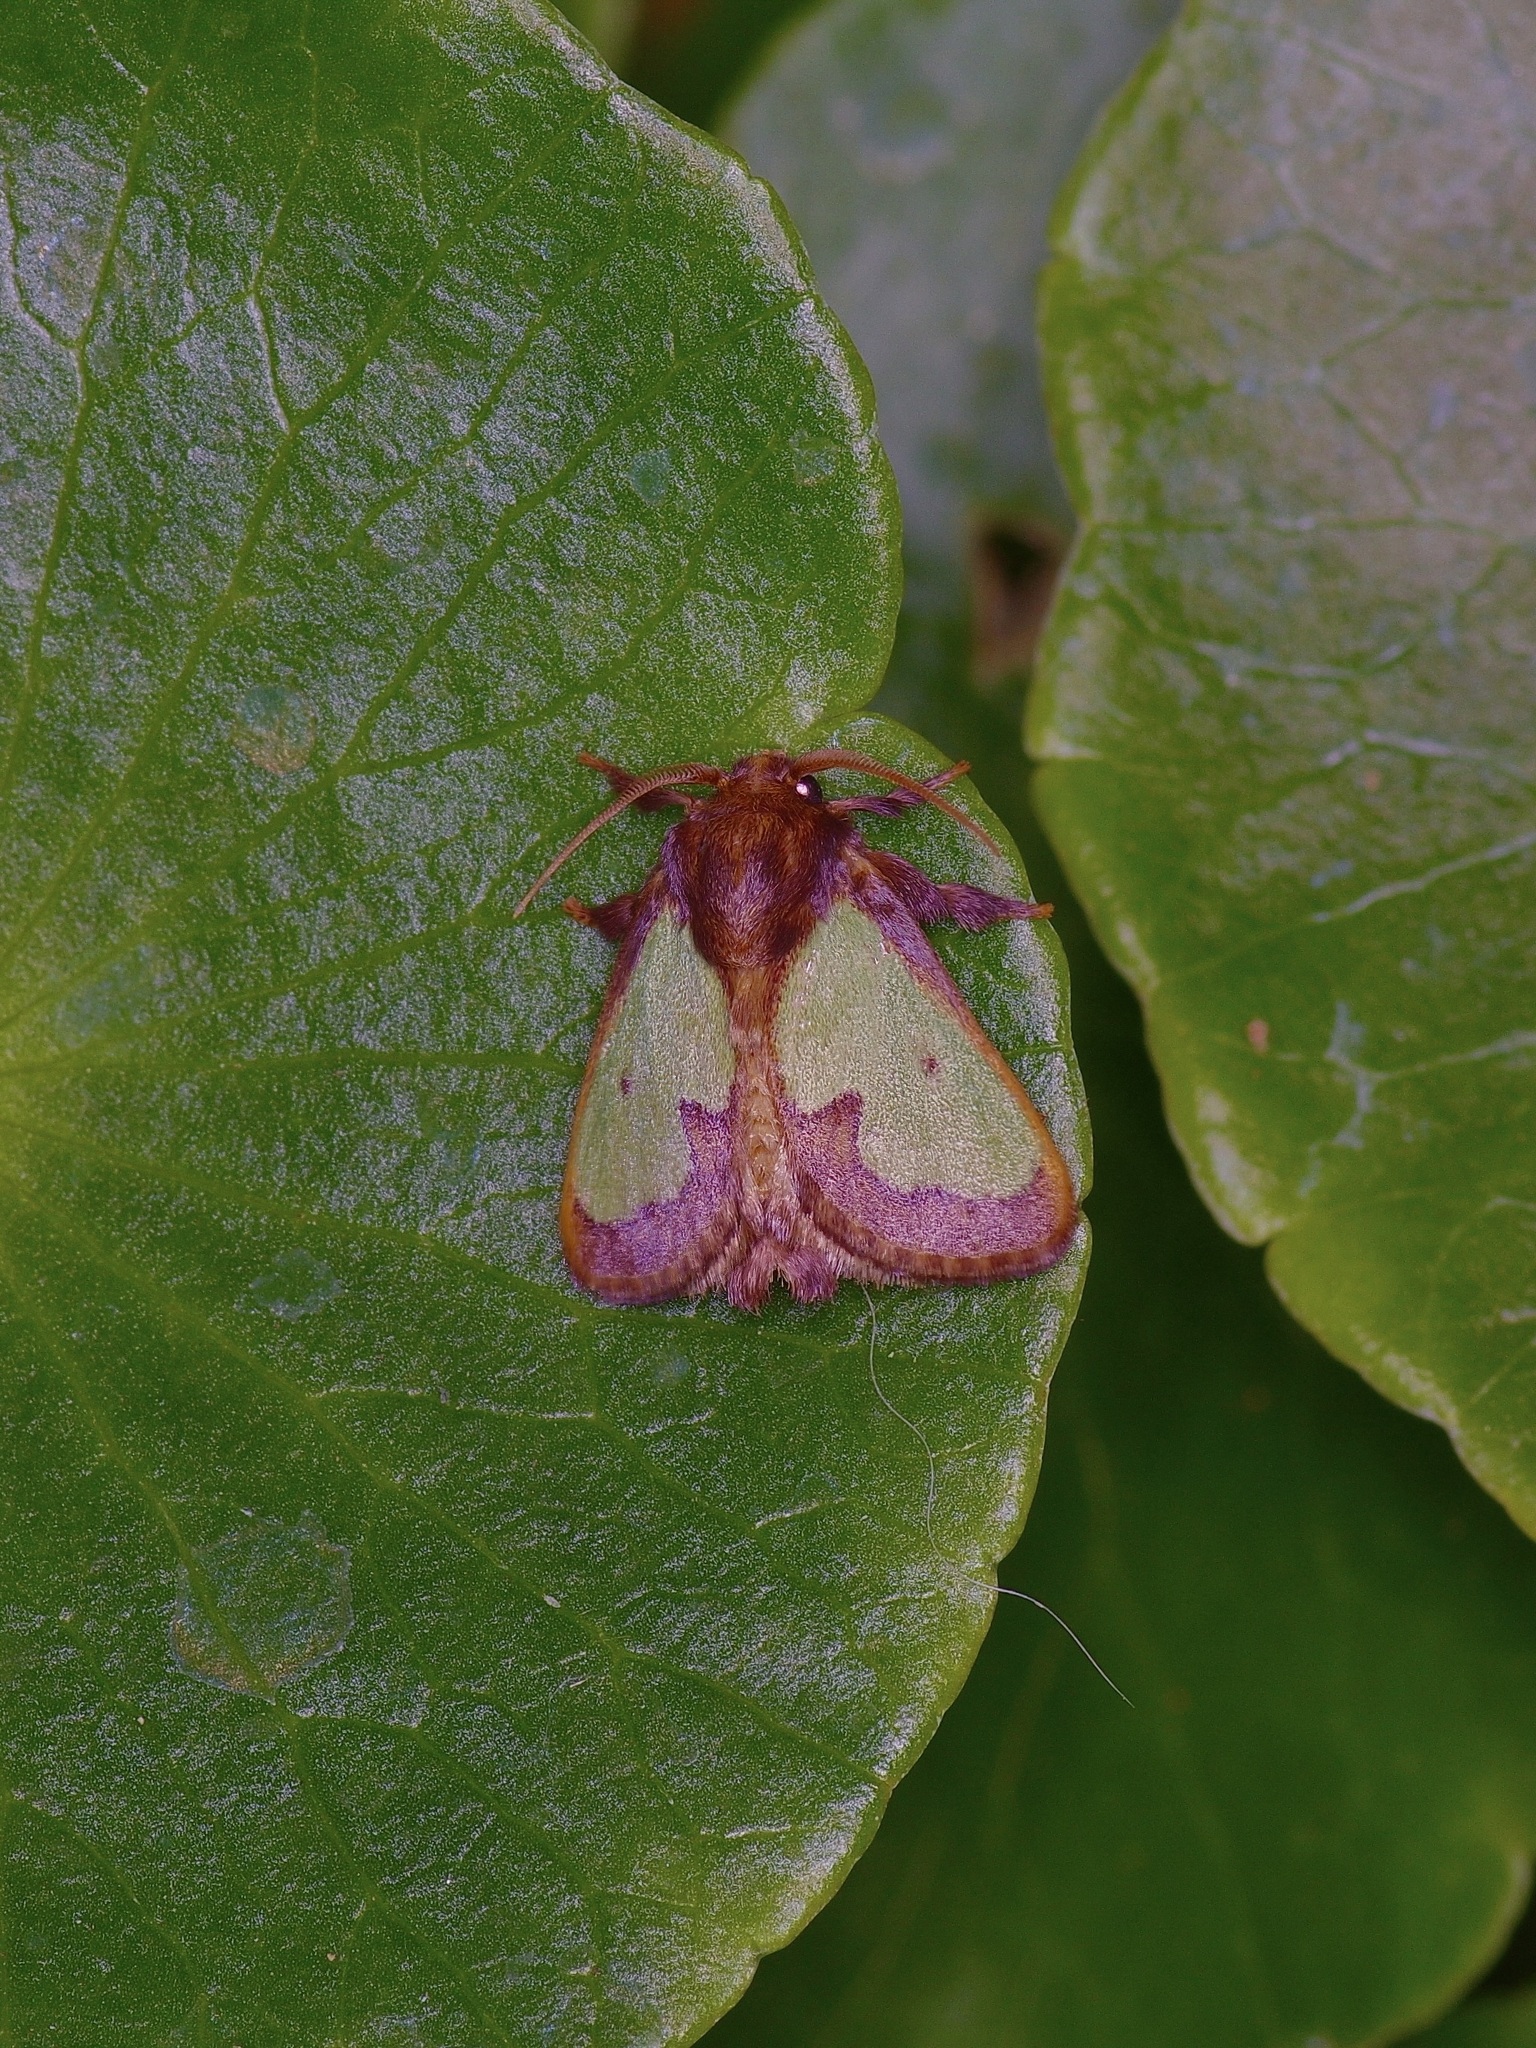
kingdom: Animalia
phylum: Arthropoda
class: Insecta
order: Lepidoptera
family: Limacodidae
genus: Euclea
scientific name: Euclea incisa
